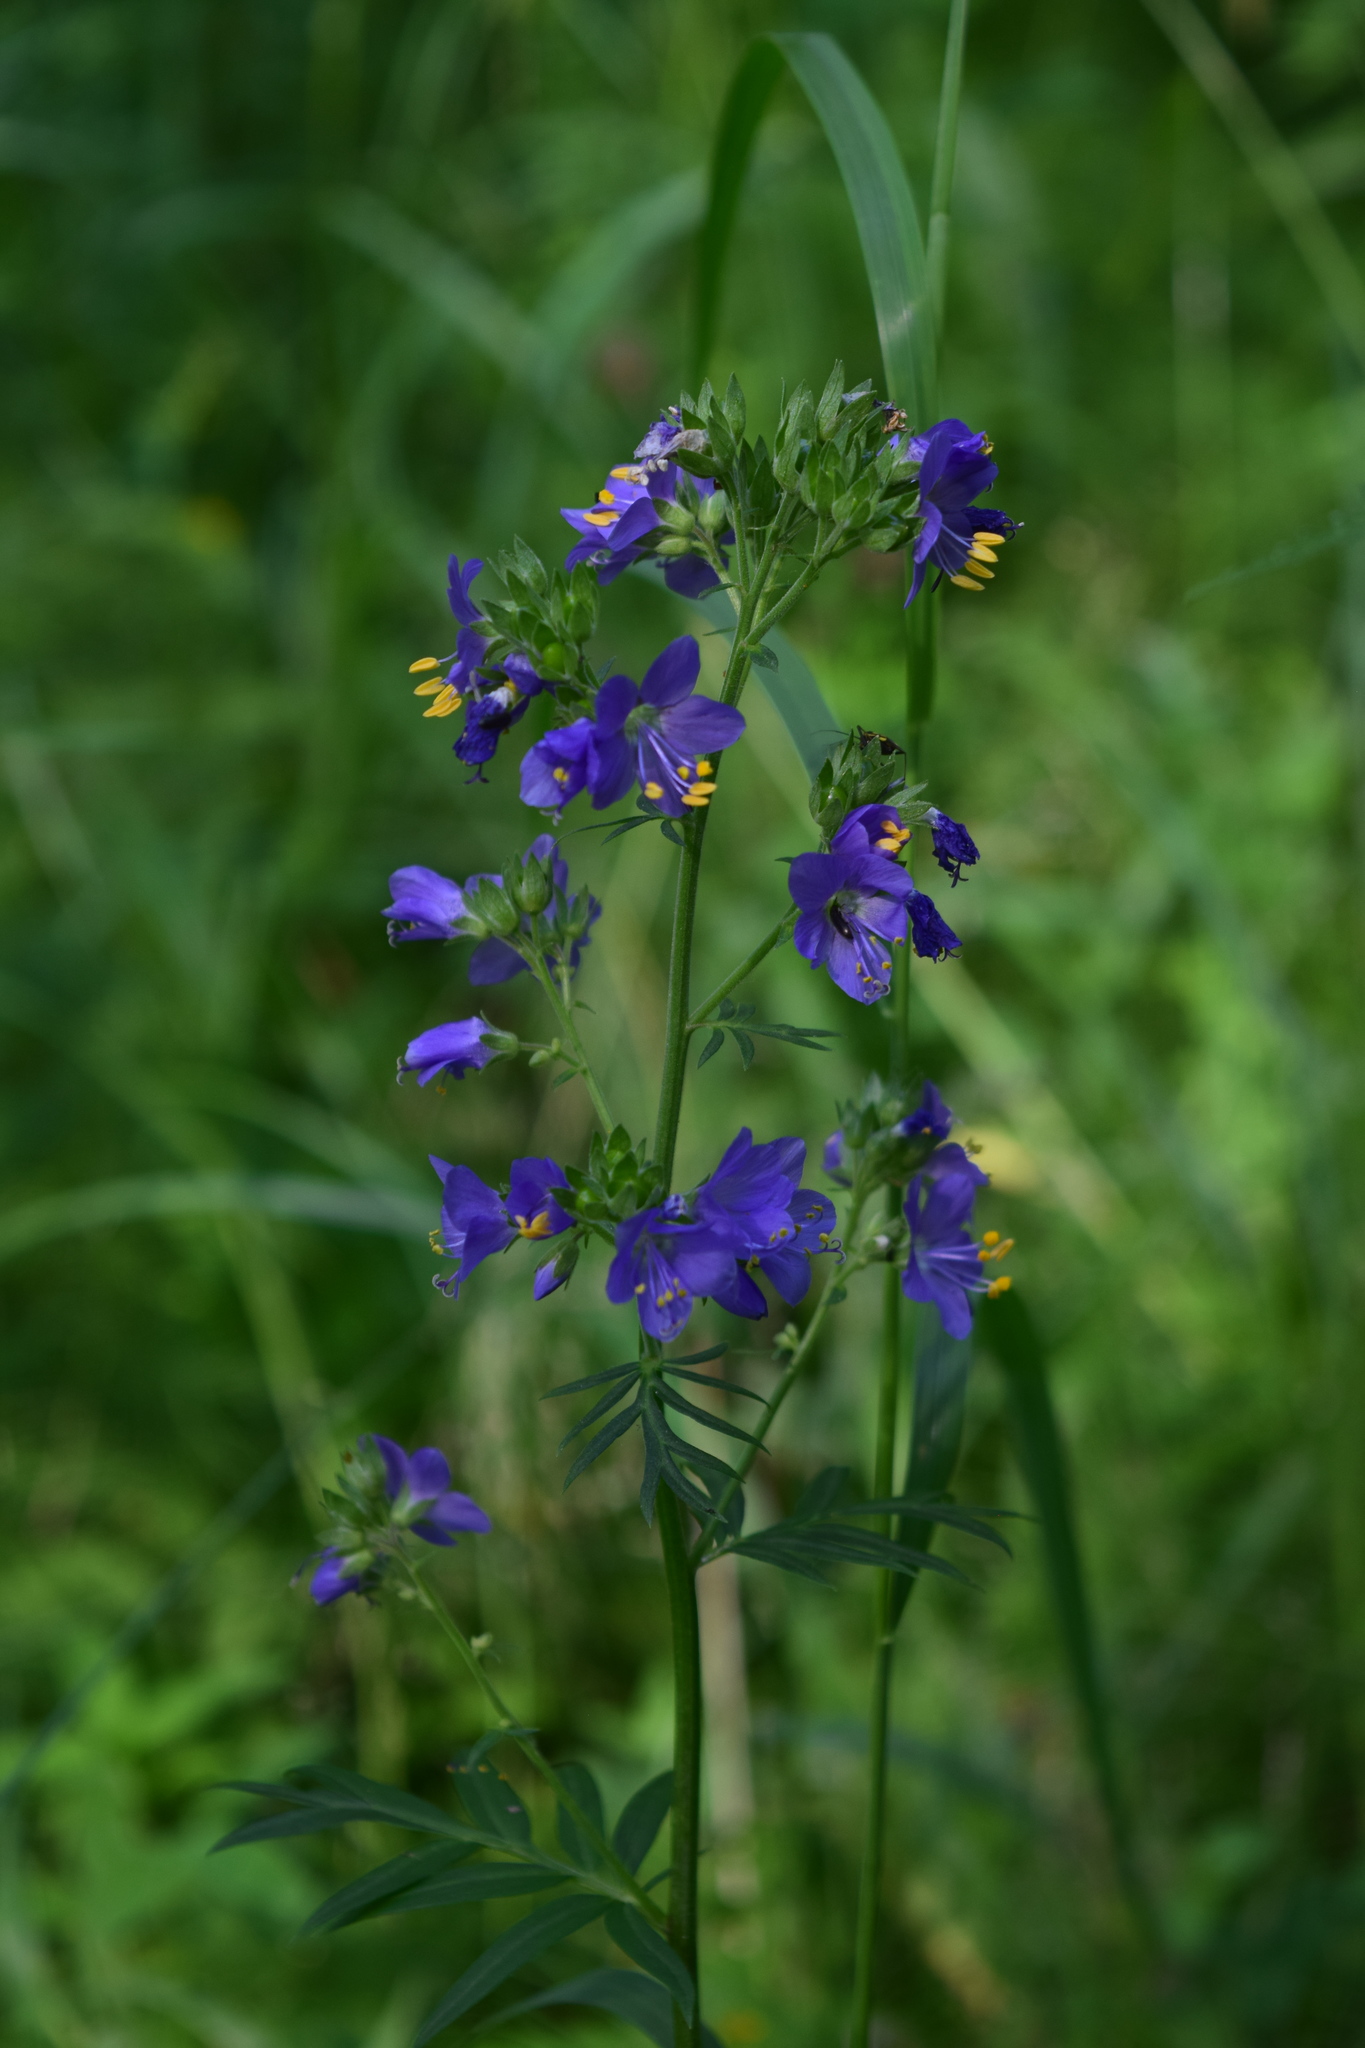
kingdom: Plantae
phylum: Tracheophyta
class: Magnoliopsida
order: Ericales
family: Polemoniaceae
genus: Polemonium
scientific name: Polemonium caeruleum
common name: Jacob's-ladder
